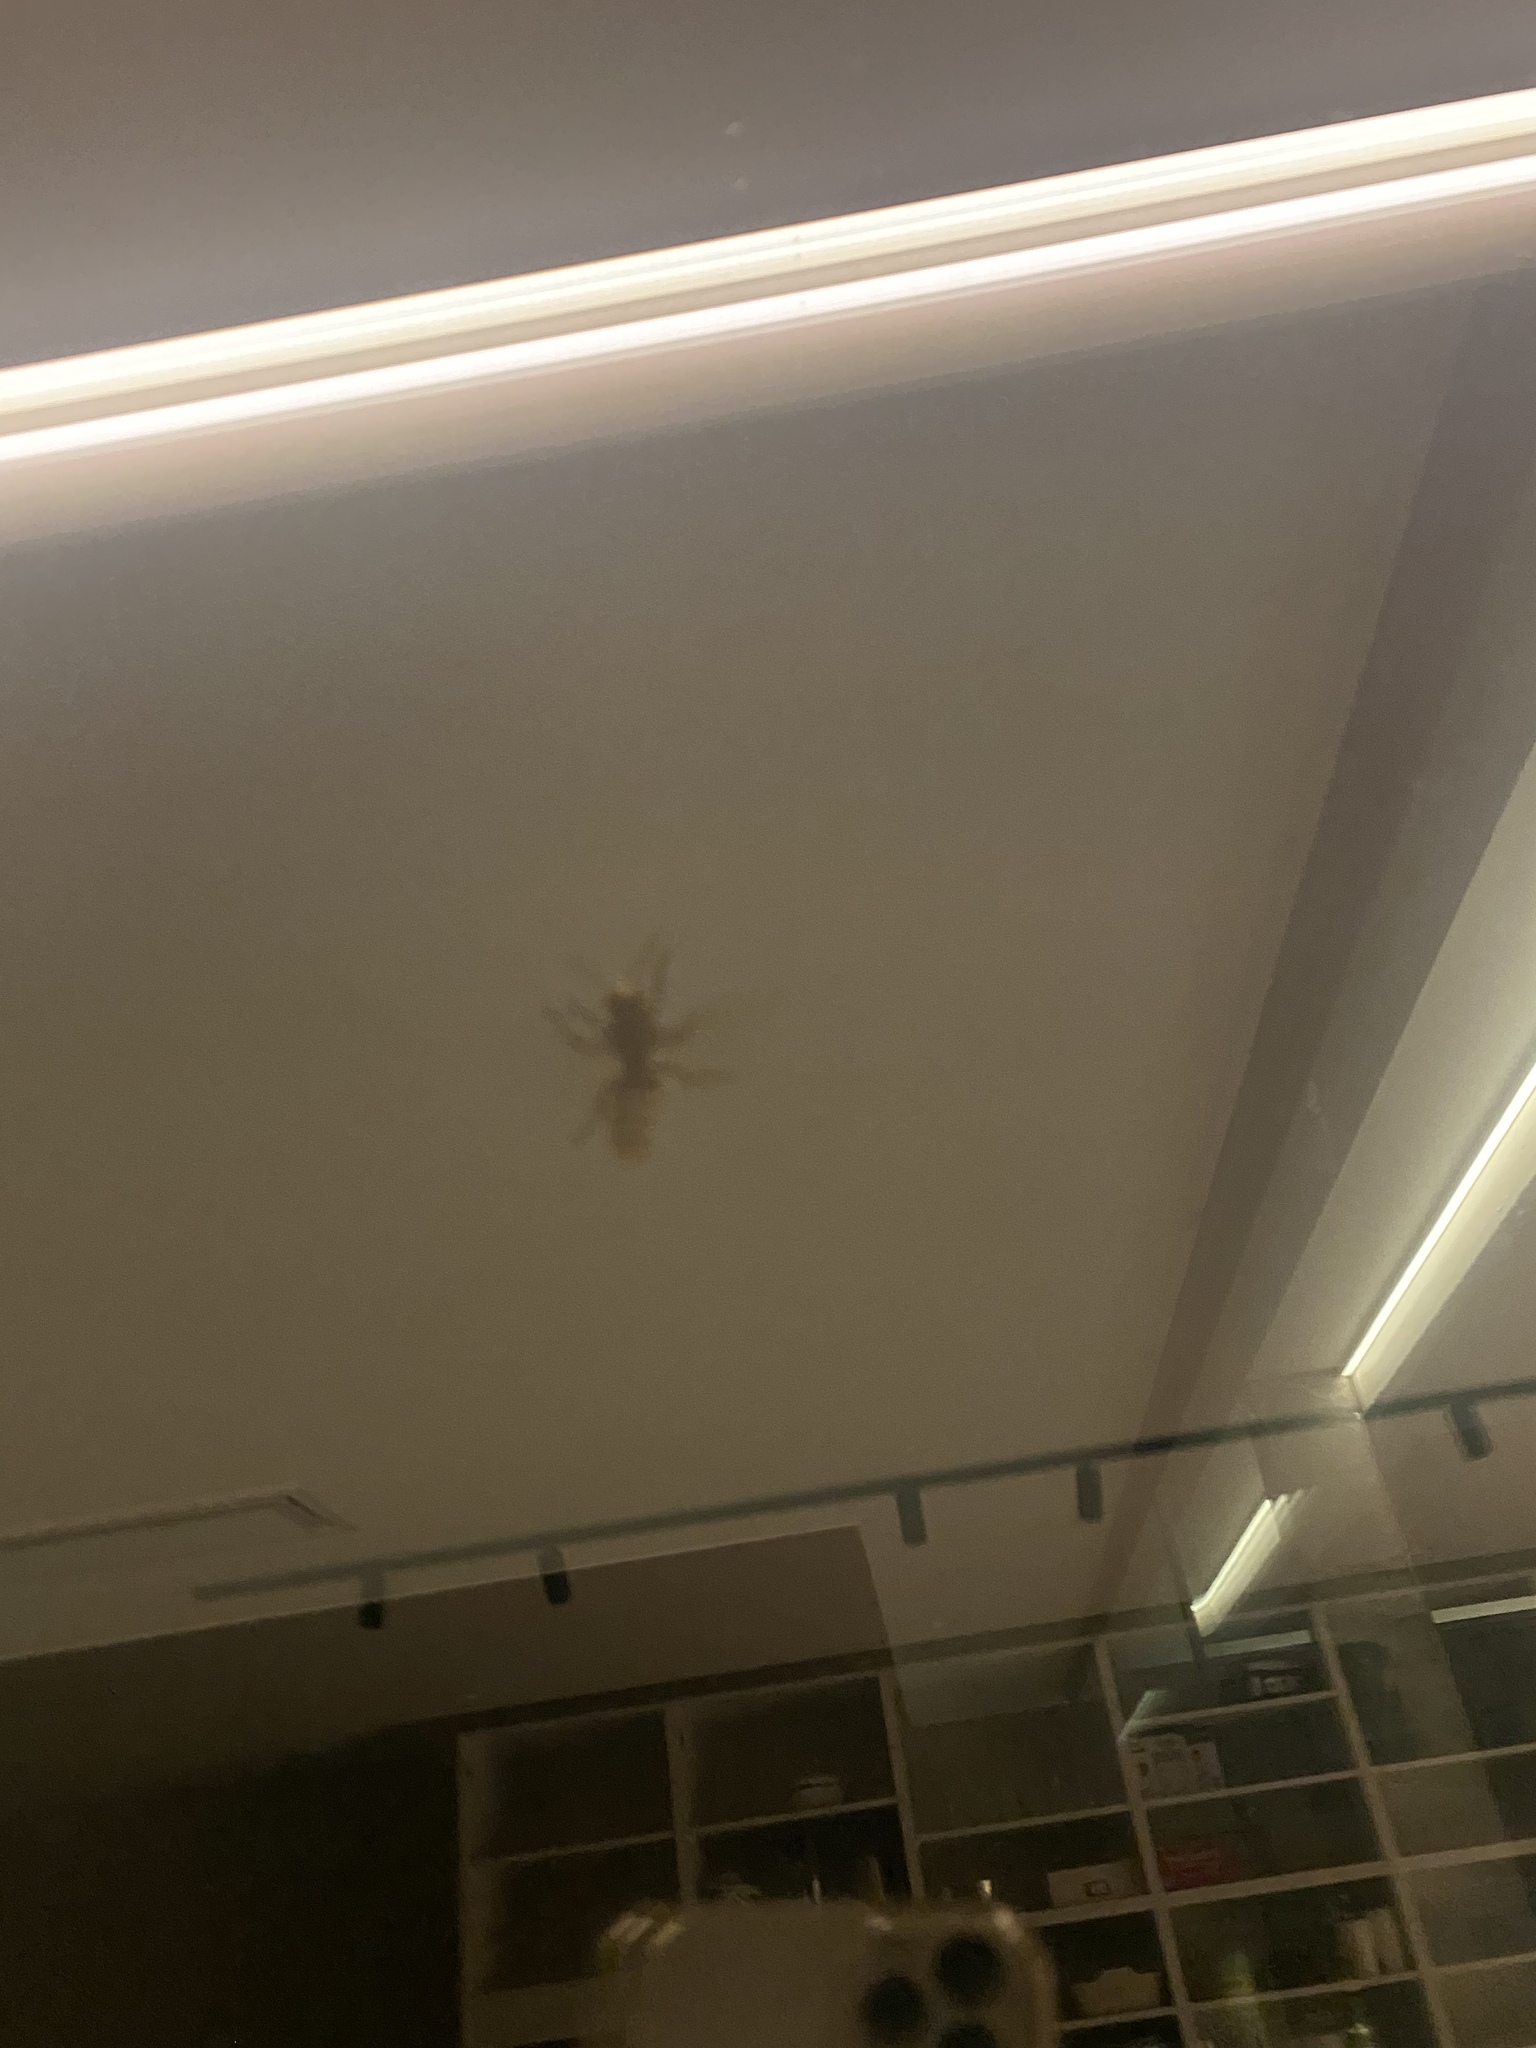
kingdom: Animalia
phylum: Arthropoda
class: Insecta
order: Hymenoptera
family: Vespidae
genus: Vespa
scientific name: Vespa crabro
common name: Hornet
